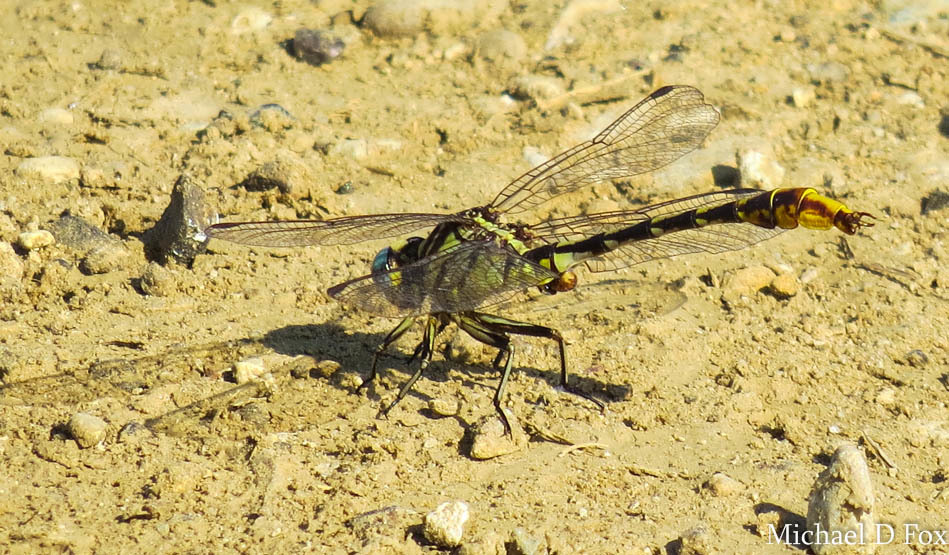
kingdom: Animalia
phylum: Arthropoda
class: Insecta
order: Odonata
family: Gomphidae
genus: Phanogomphus
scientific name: Phanogomphus militaris
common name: Sulphur-tipped clubtail
